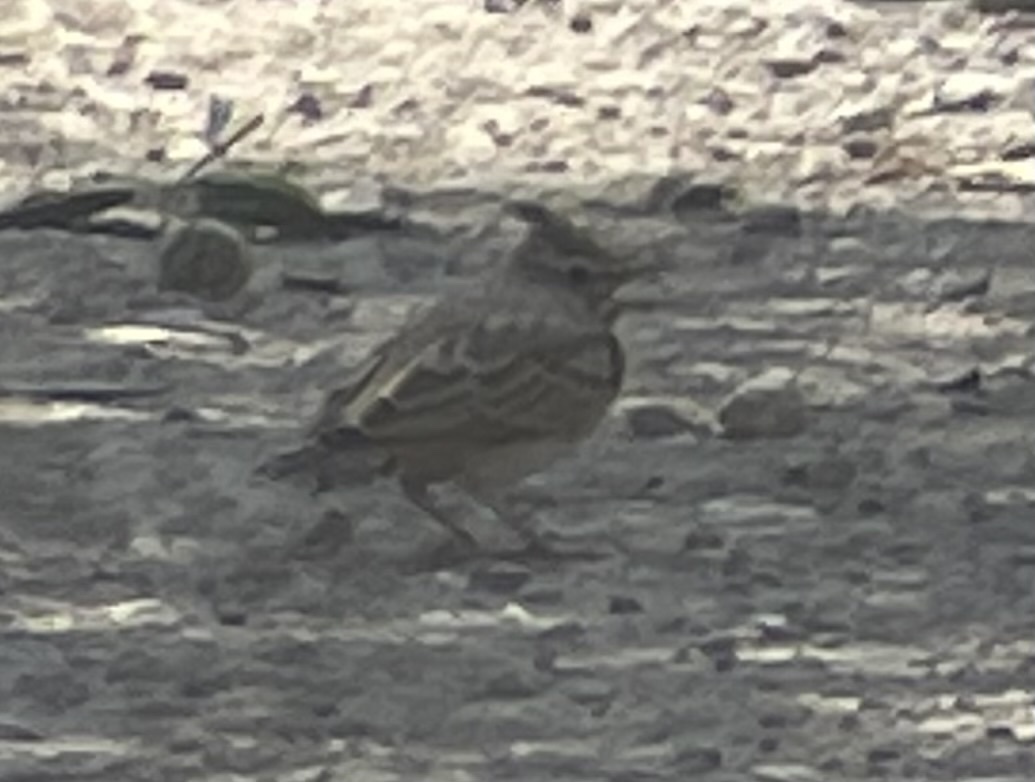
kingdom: Animalia
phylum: Chordata
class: Aves
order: Passeriformes
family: Alaudidae
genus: Galerida
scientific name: Galerida cristata
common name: Crested lark
